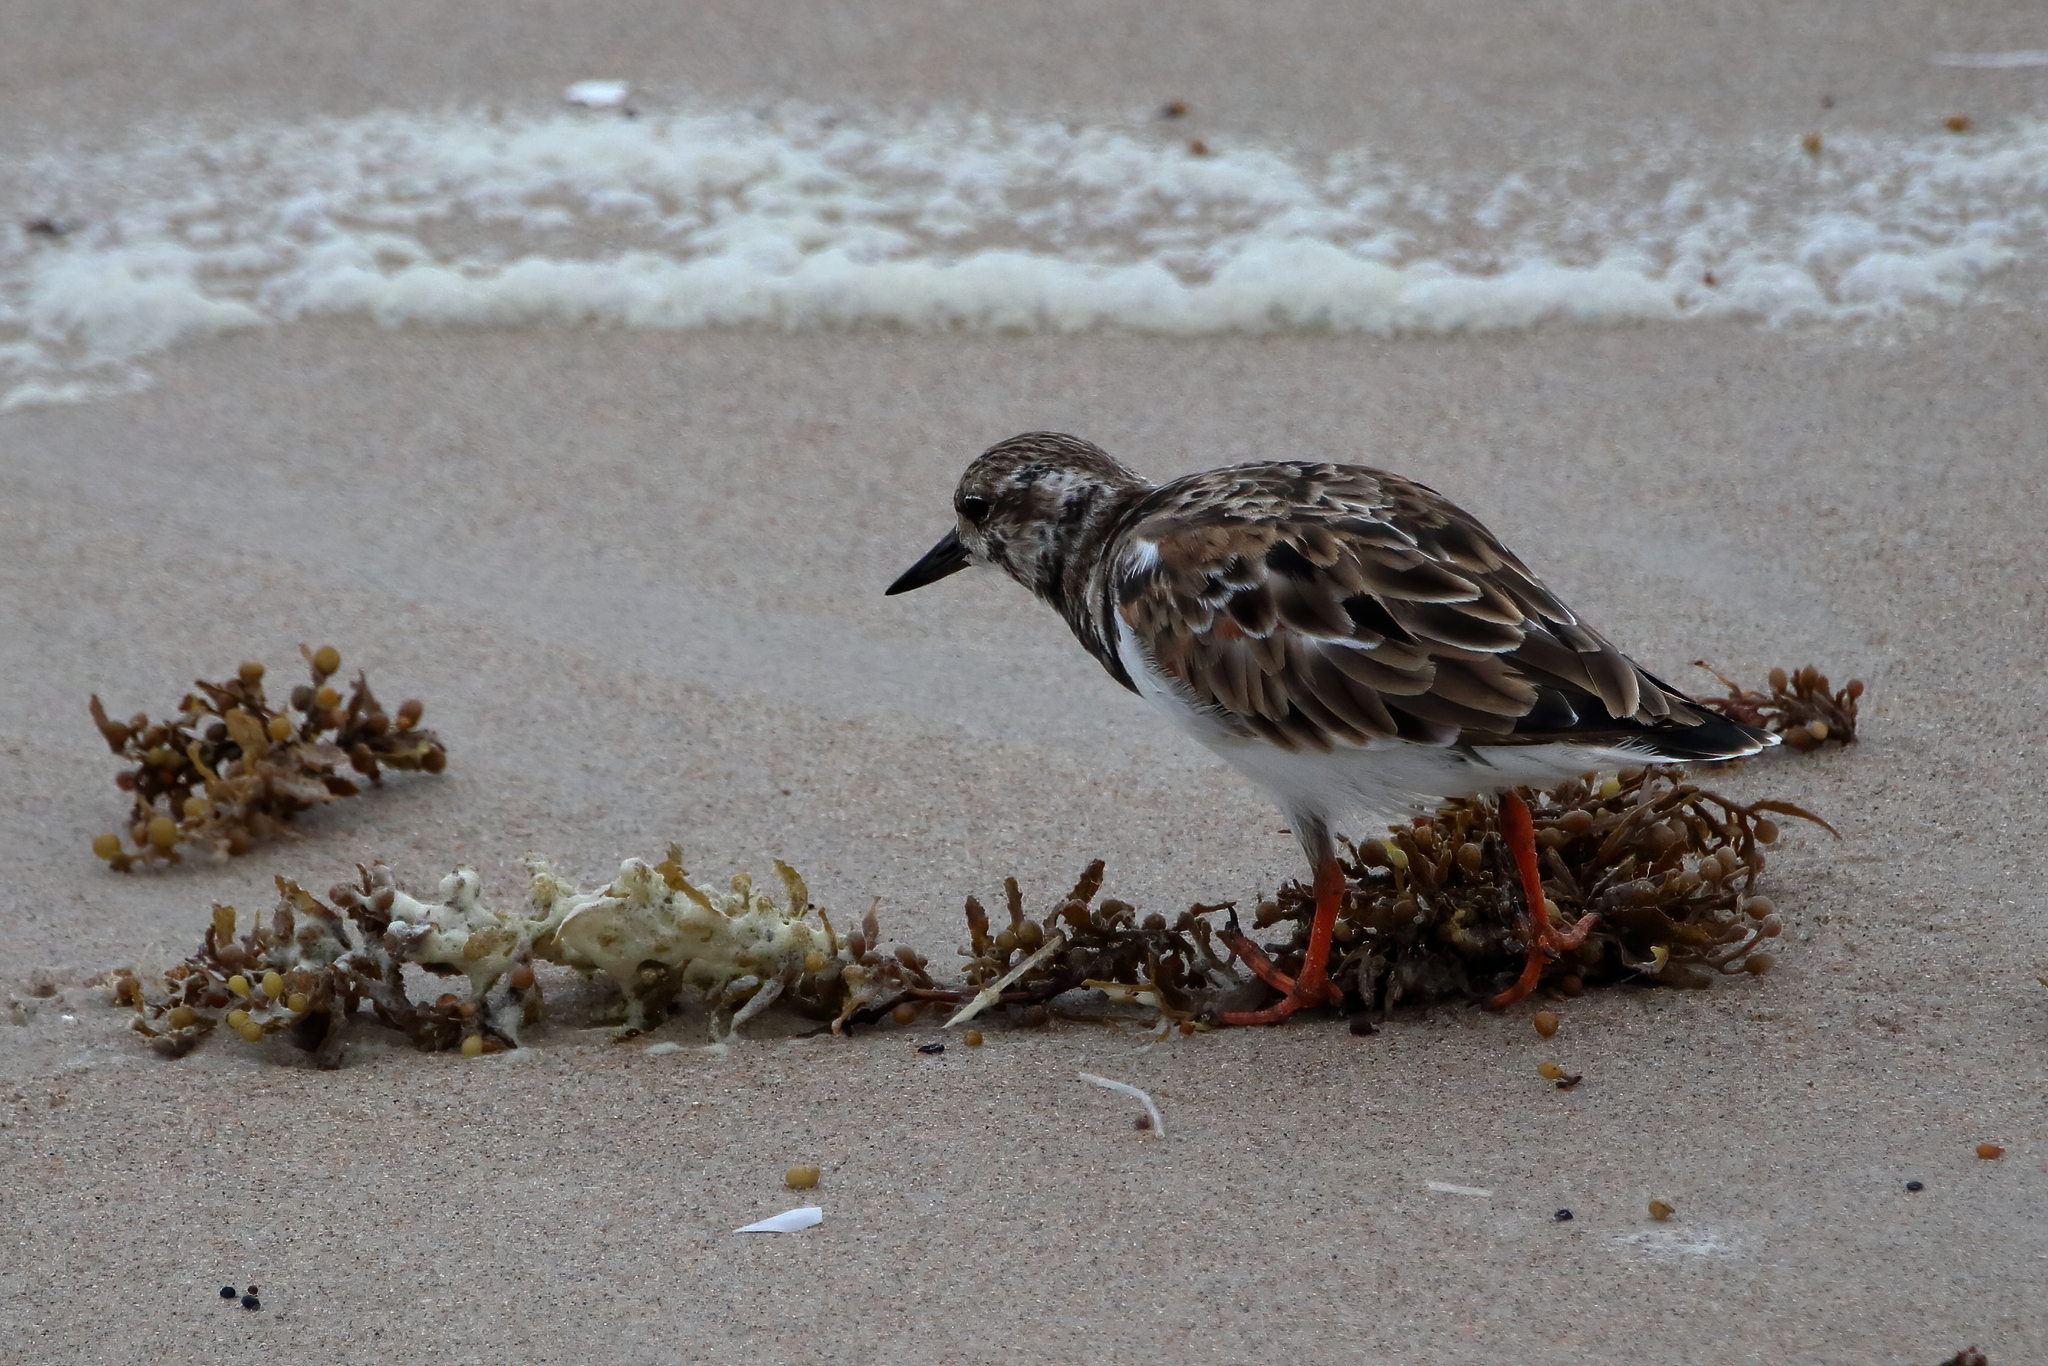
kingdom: Animalia
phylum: Chordata
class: Aves
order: Charadriiformes
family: Scolopacidae
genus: Arenaria
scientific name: Arenaria interpres
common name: Ruddy turnstone
